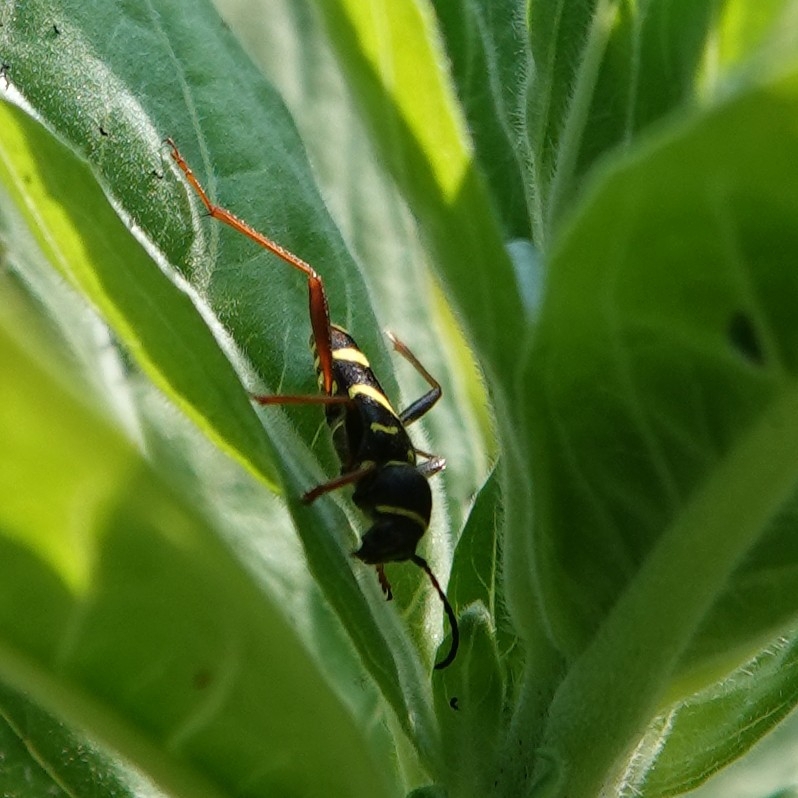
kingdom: Animalia
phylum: Arthropoda
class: Insecta
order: Coleoptera
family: Cerambycidae
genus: Clytus
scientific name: Clytus arietis
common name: Wasp beetle
